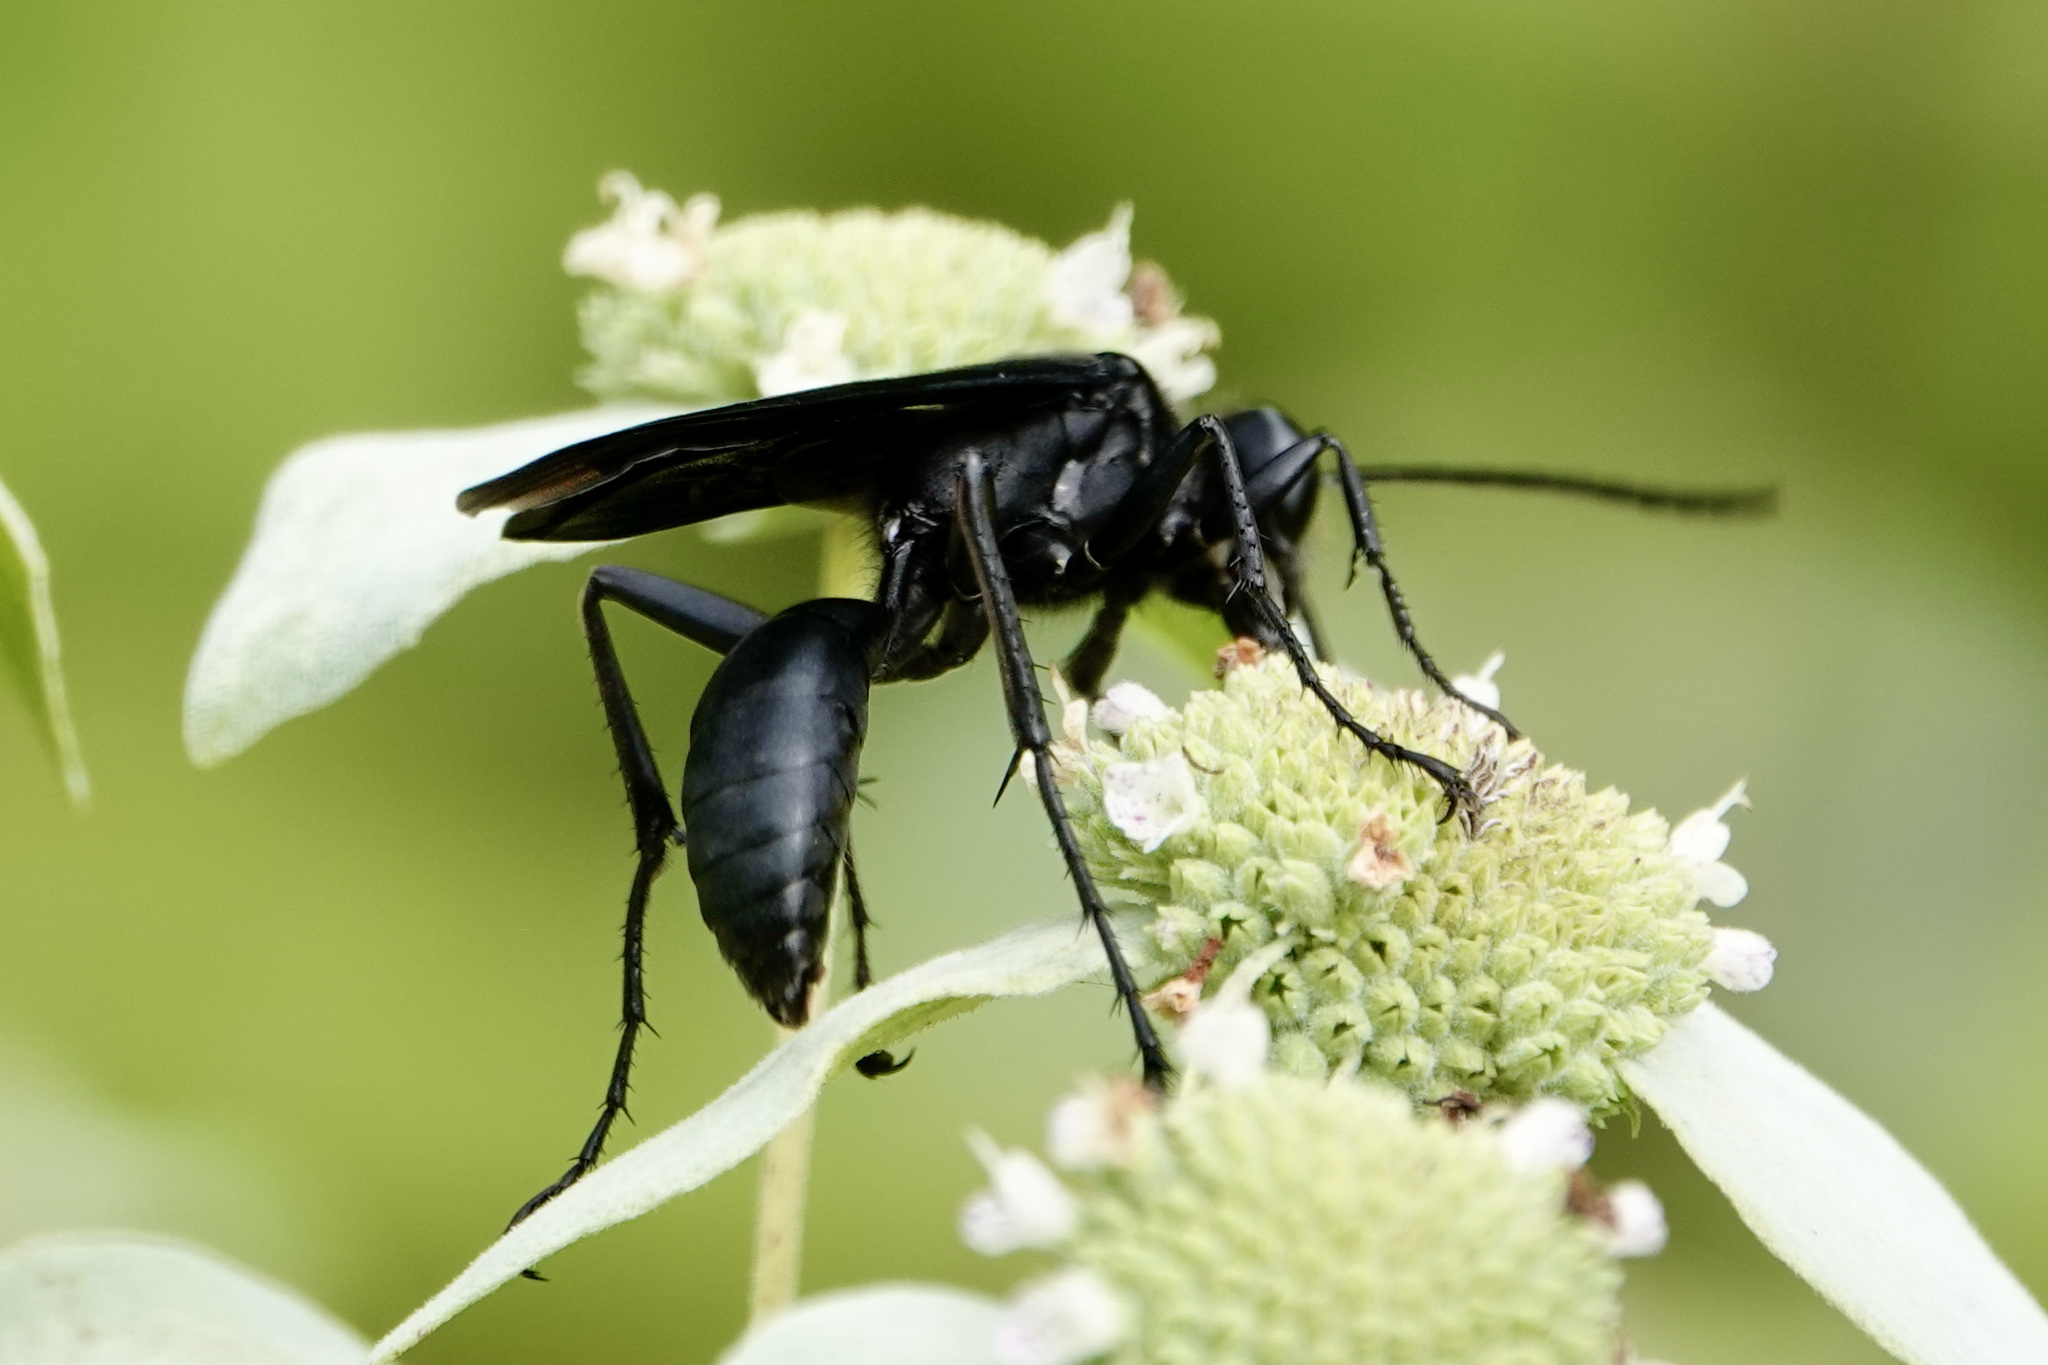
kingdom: Animalia
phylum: Arthropoda
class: Insecta
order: Hymenoptera
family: Sphecidae
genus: Sphex
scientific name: Sphex pensylvanicus
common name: Great black digger wasp
